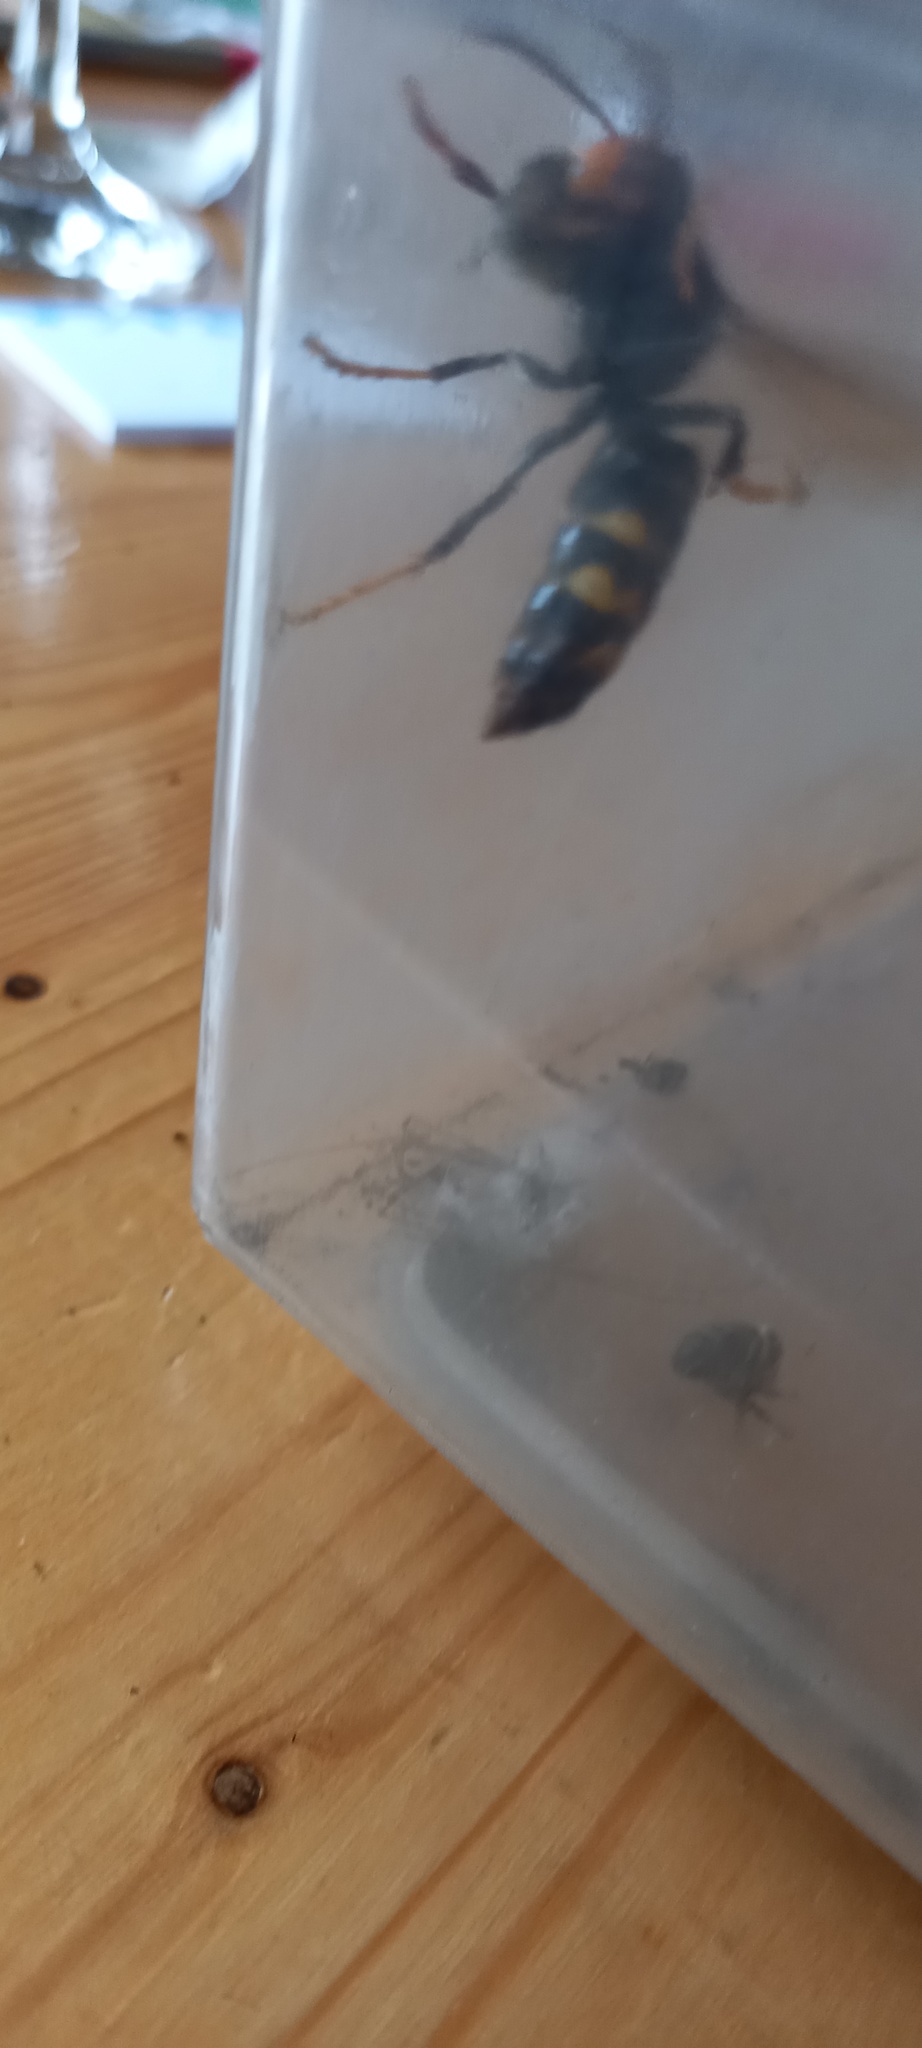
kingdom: Animalia
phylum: Arthropoda
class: Insecta
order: Hymenoptera
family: Vespidae
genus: Vespa
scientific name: Vespa velutina
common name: Asian hornet
